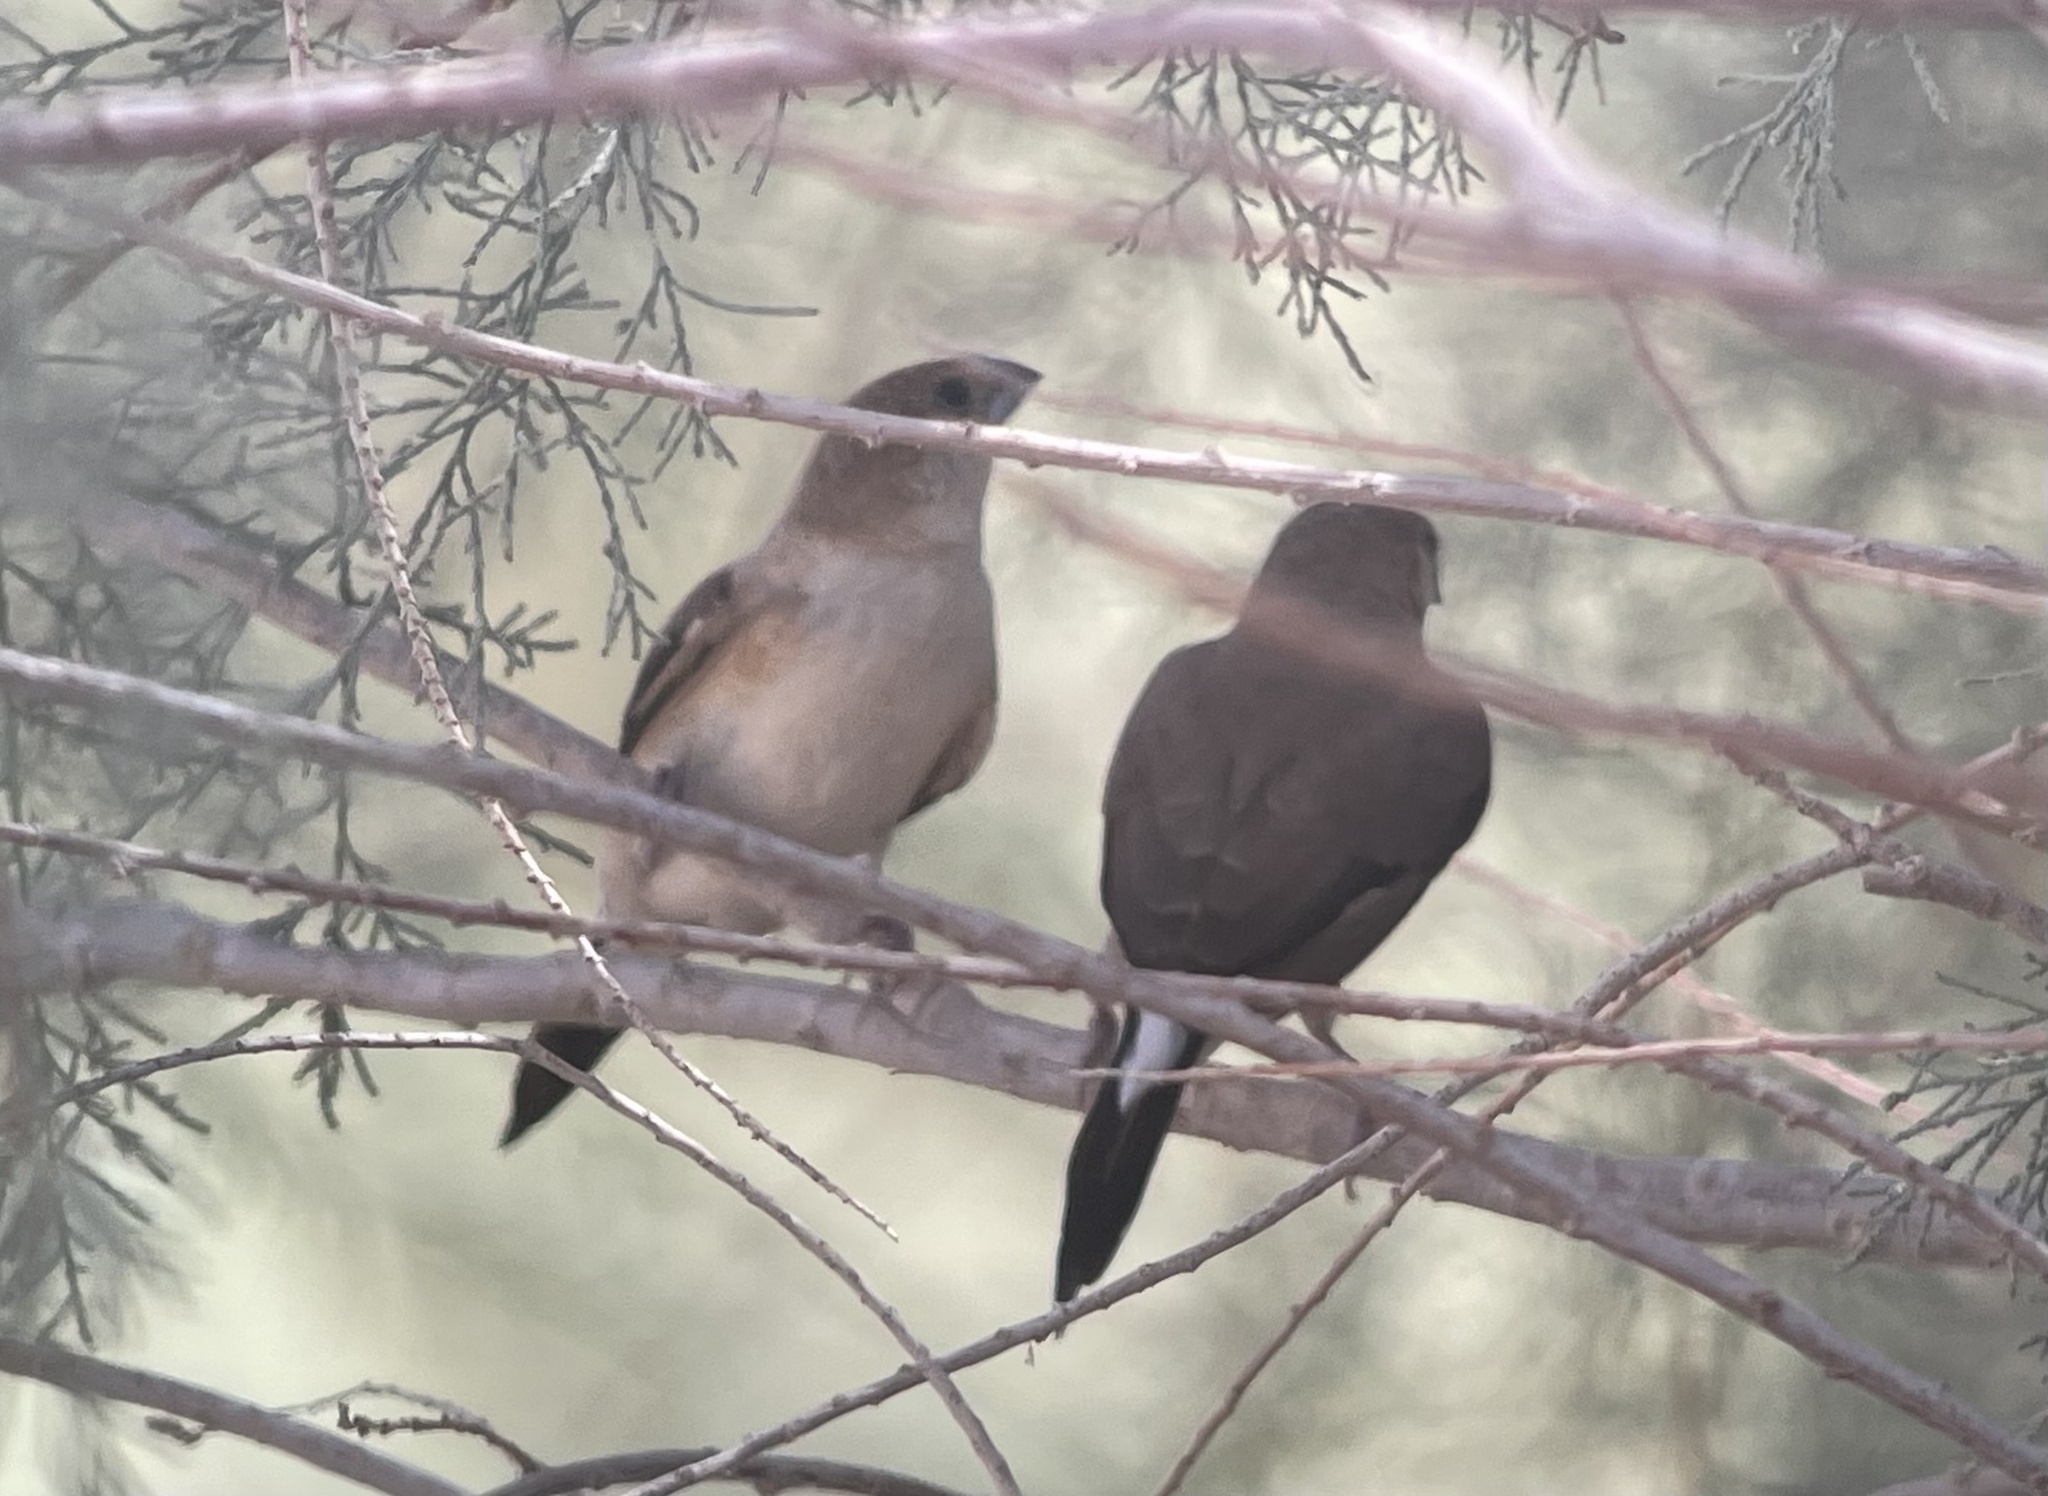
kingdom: Animalia
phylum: Chordata
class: Aves
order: Passeriformes
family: Estrildidae
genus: Euodice
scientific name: Euodice malabarica
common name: Indian silverbill
